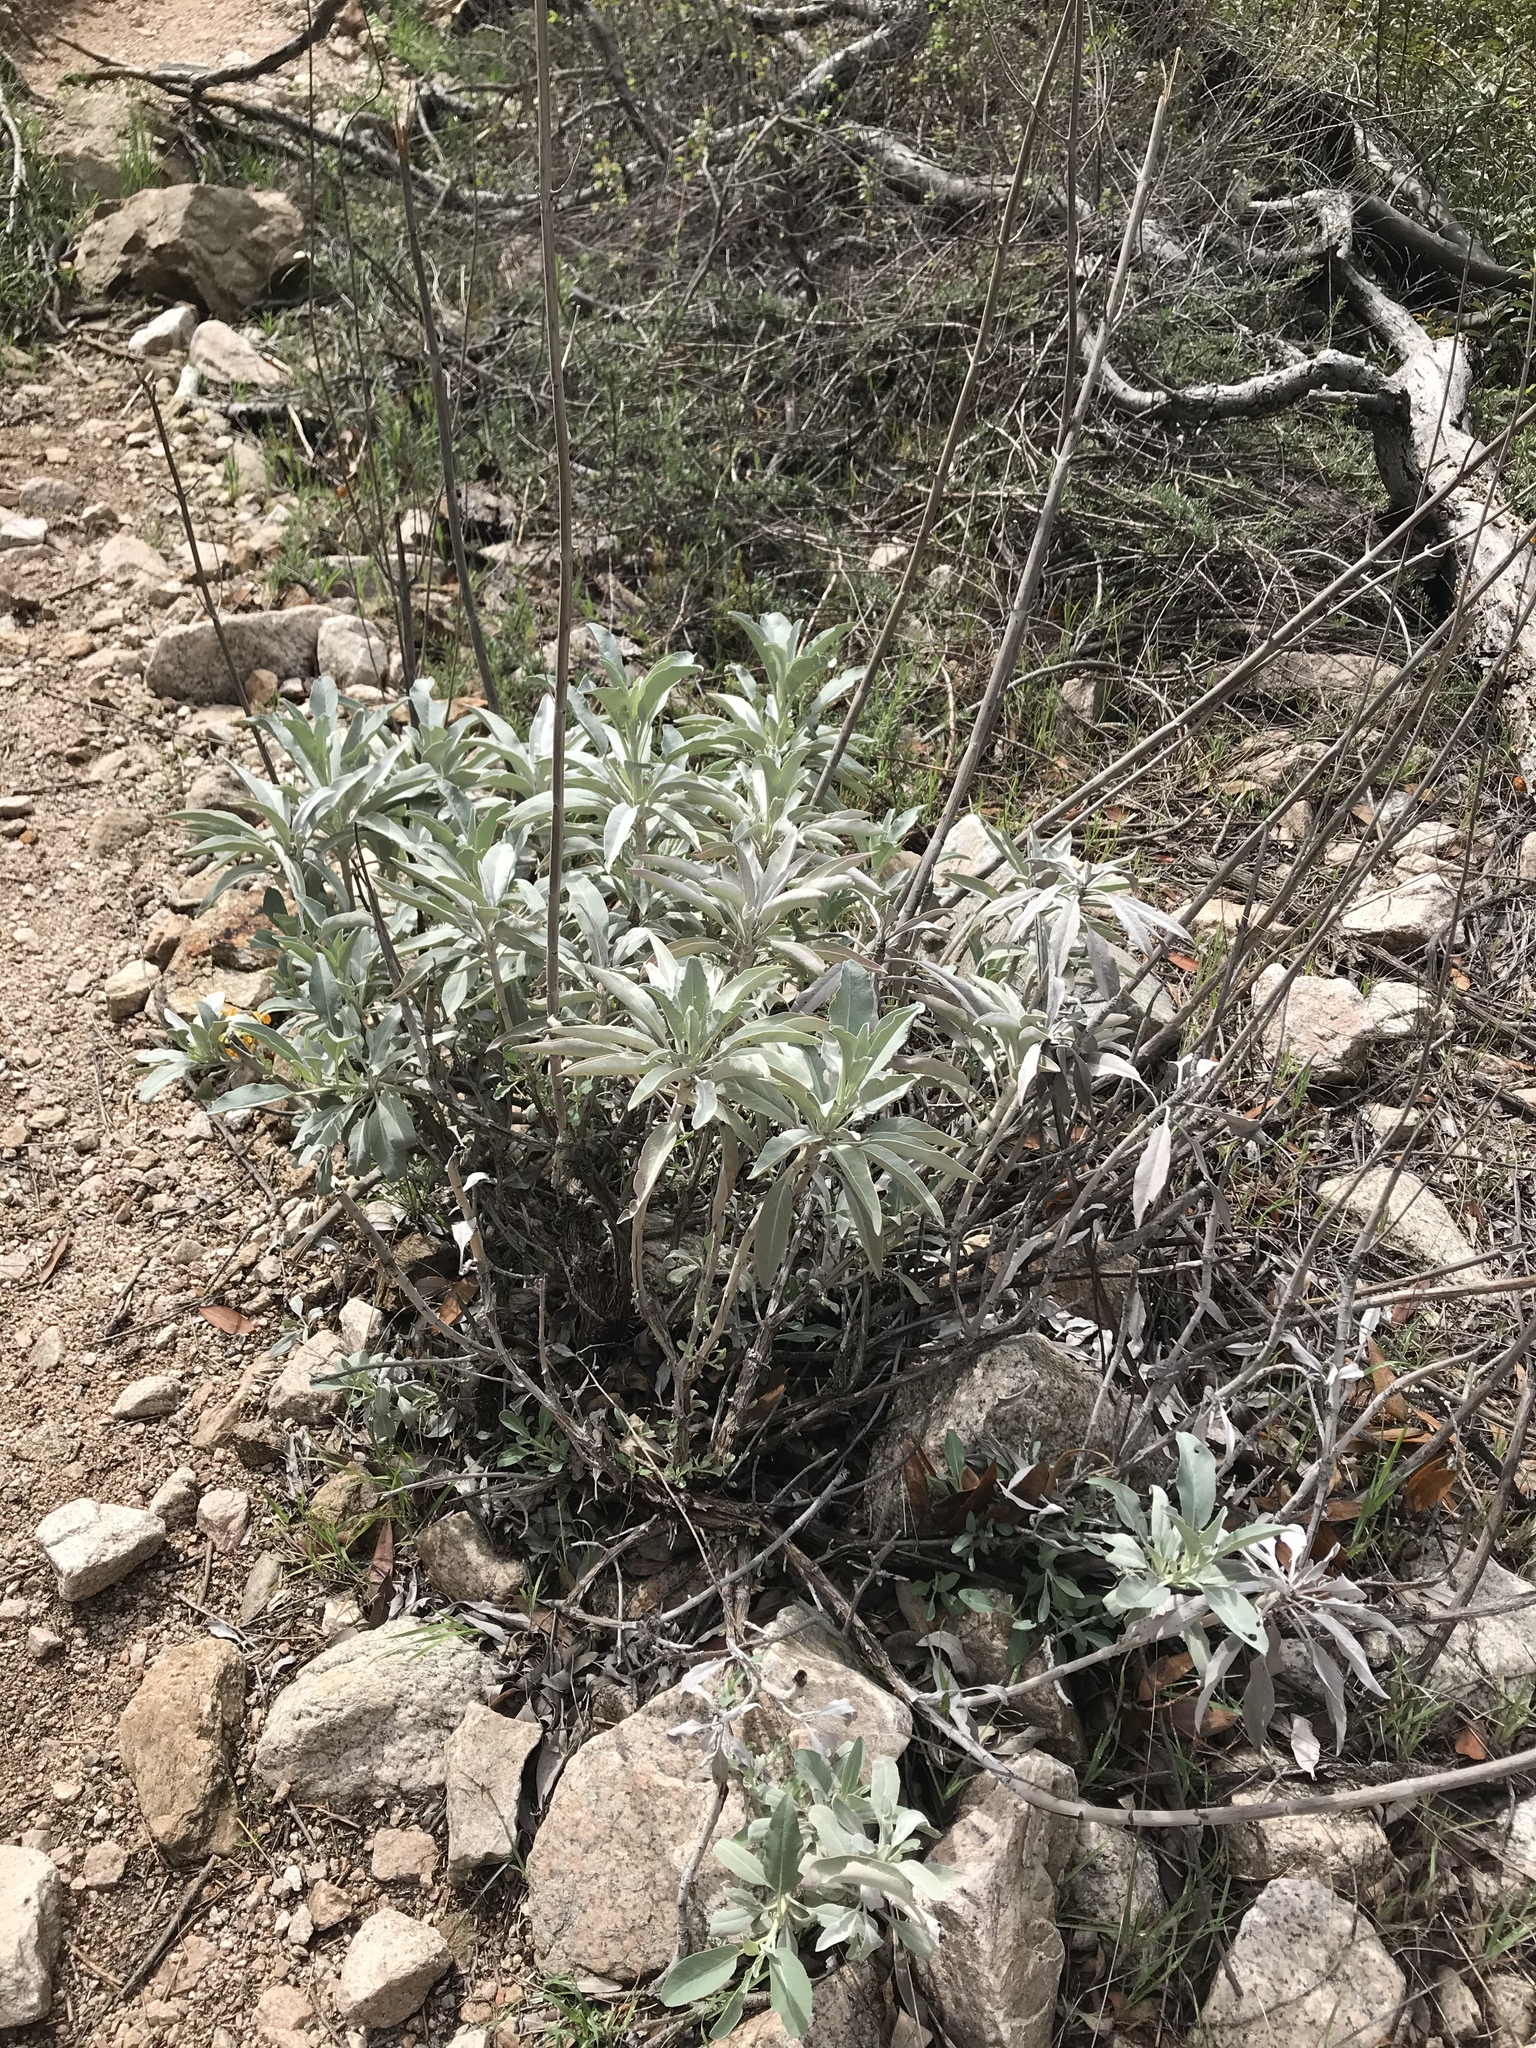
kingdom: Plantae
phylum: Tracheophyta
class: Magnoliopsida
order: Lamiales
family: Lamiaceae
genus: Salvia
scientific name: Salvia apiana
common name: White sage
